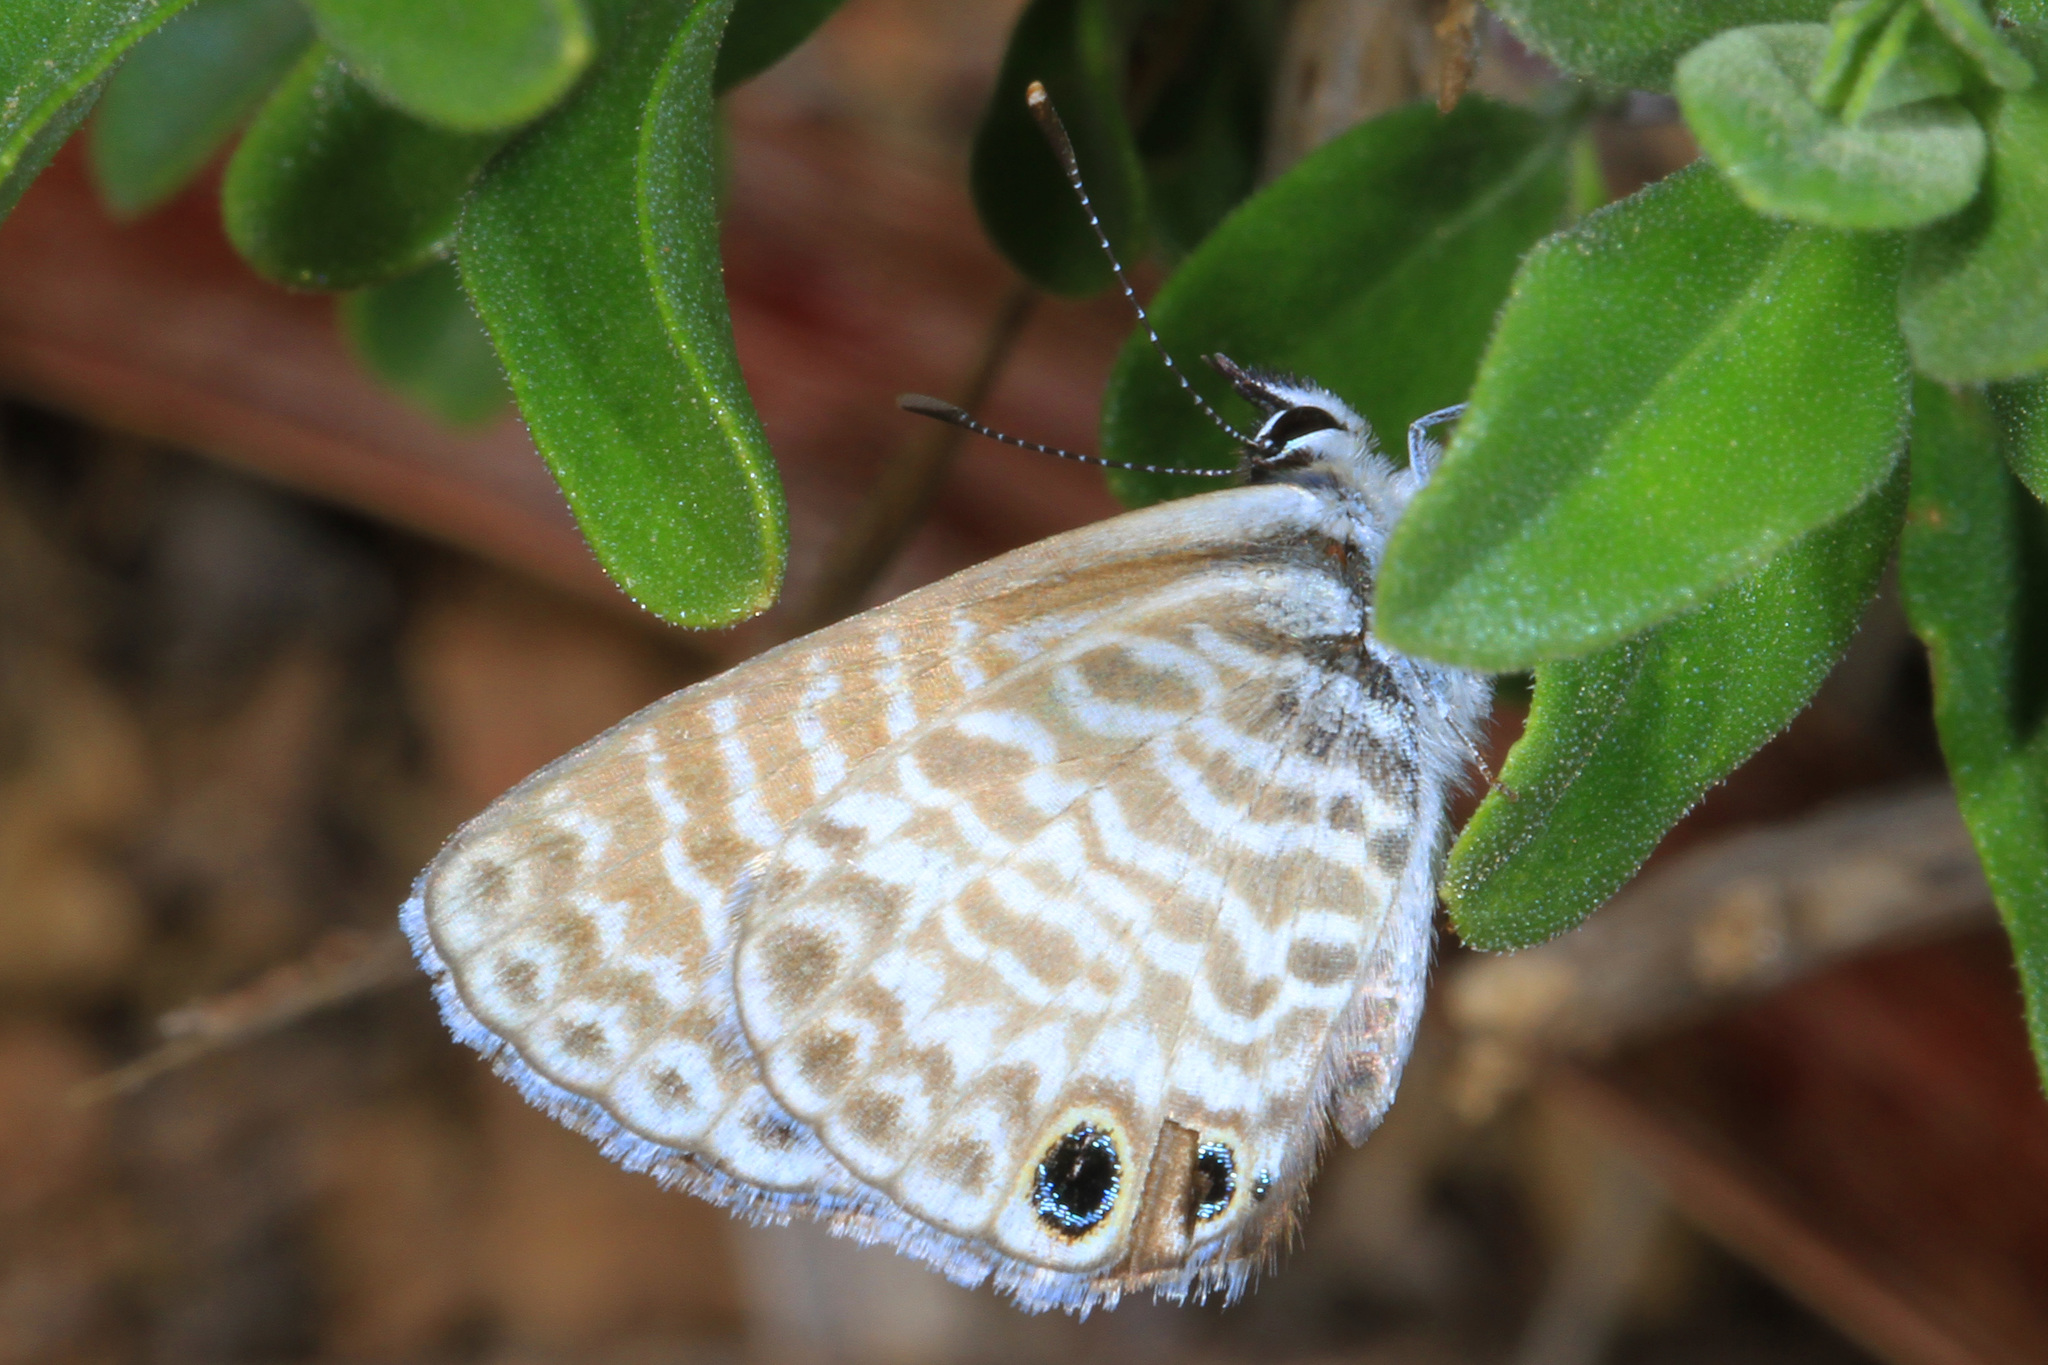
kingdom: Animalia
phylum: Arthropoda
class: Insecta
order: Lepidoptera
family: Lycaenidae
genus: Leptotes
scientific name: Leptotes marina
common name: Marine blue
